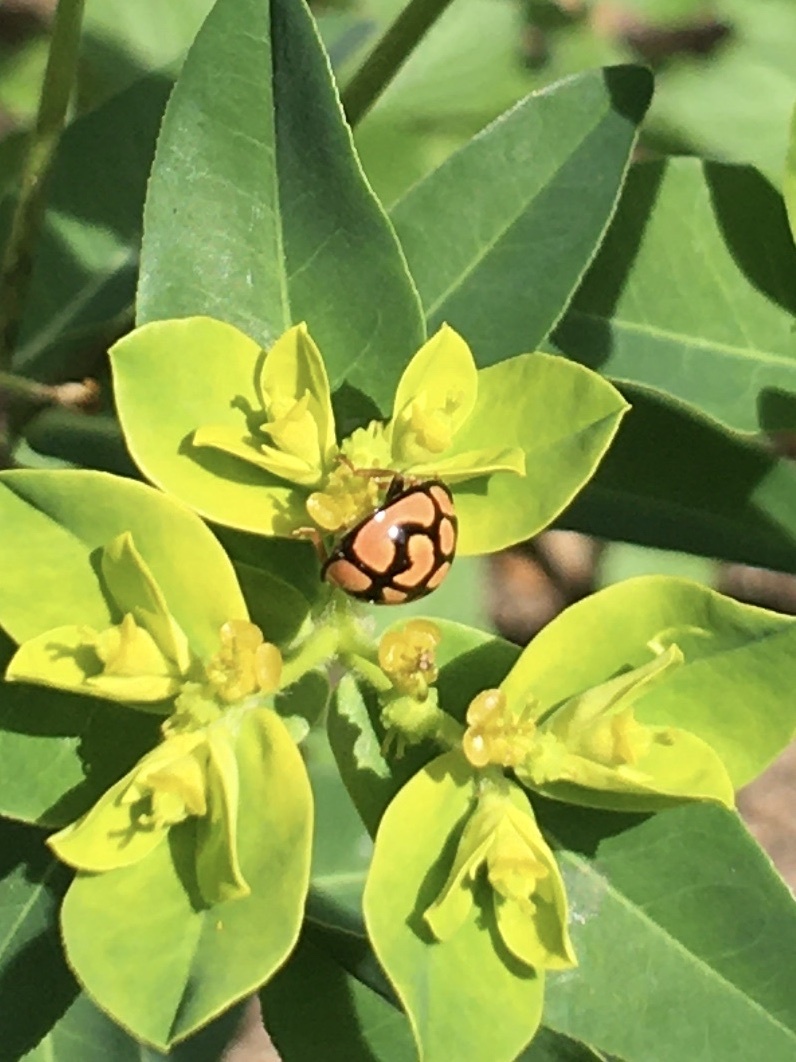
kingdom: Animalia
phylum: Arthropoda
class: Insecta
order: Coleoptera
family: Coccinellidae
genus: Cheilomenes
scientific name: Cheilomenes lunata
